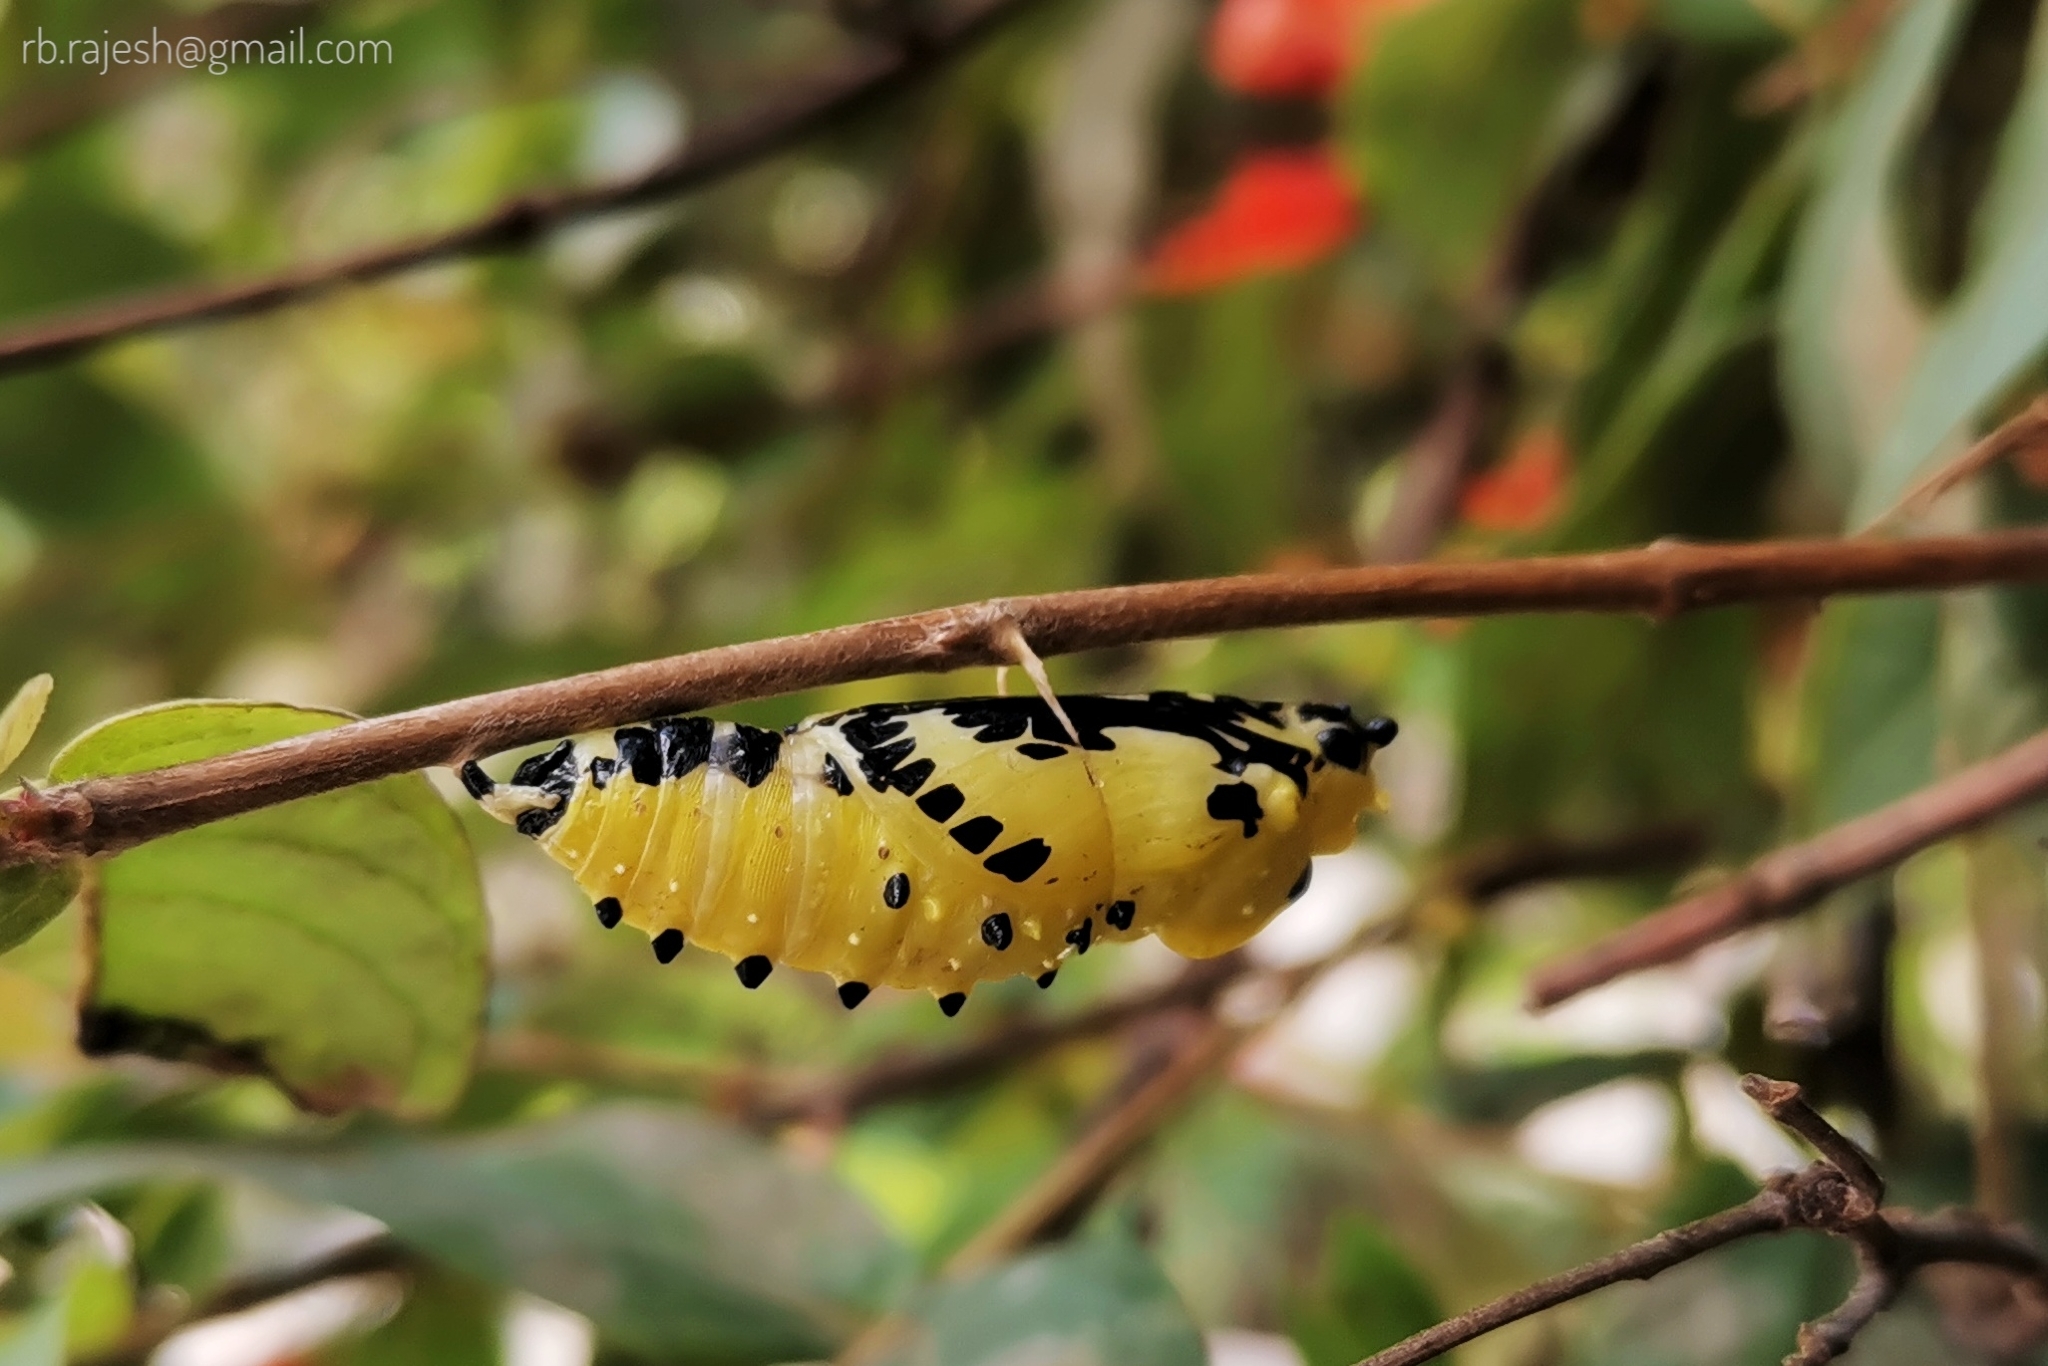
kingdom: Animalia
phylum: Arthropoda
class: Insecta
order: Lepidoptera
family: Pieridae
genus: Delias
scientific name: Delias eucharis
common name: Common jezebel
